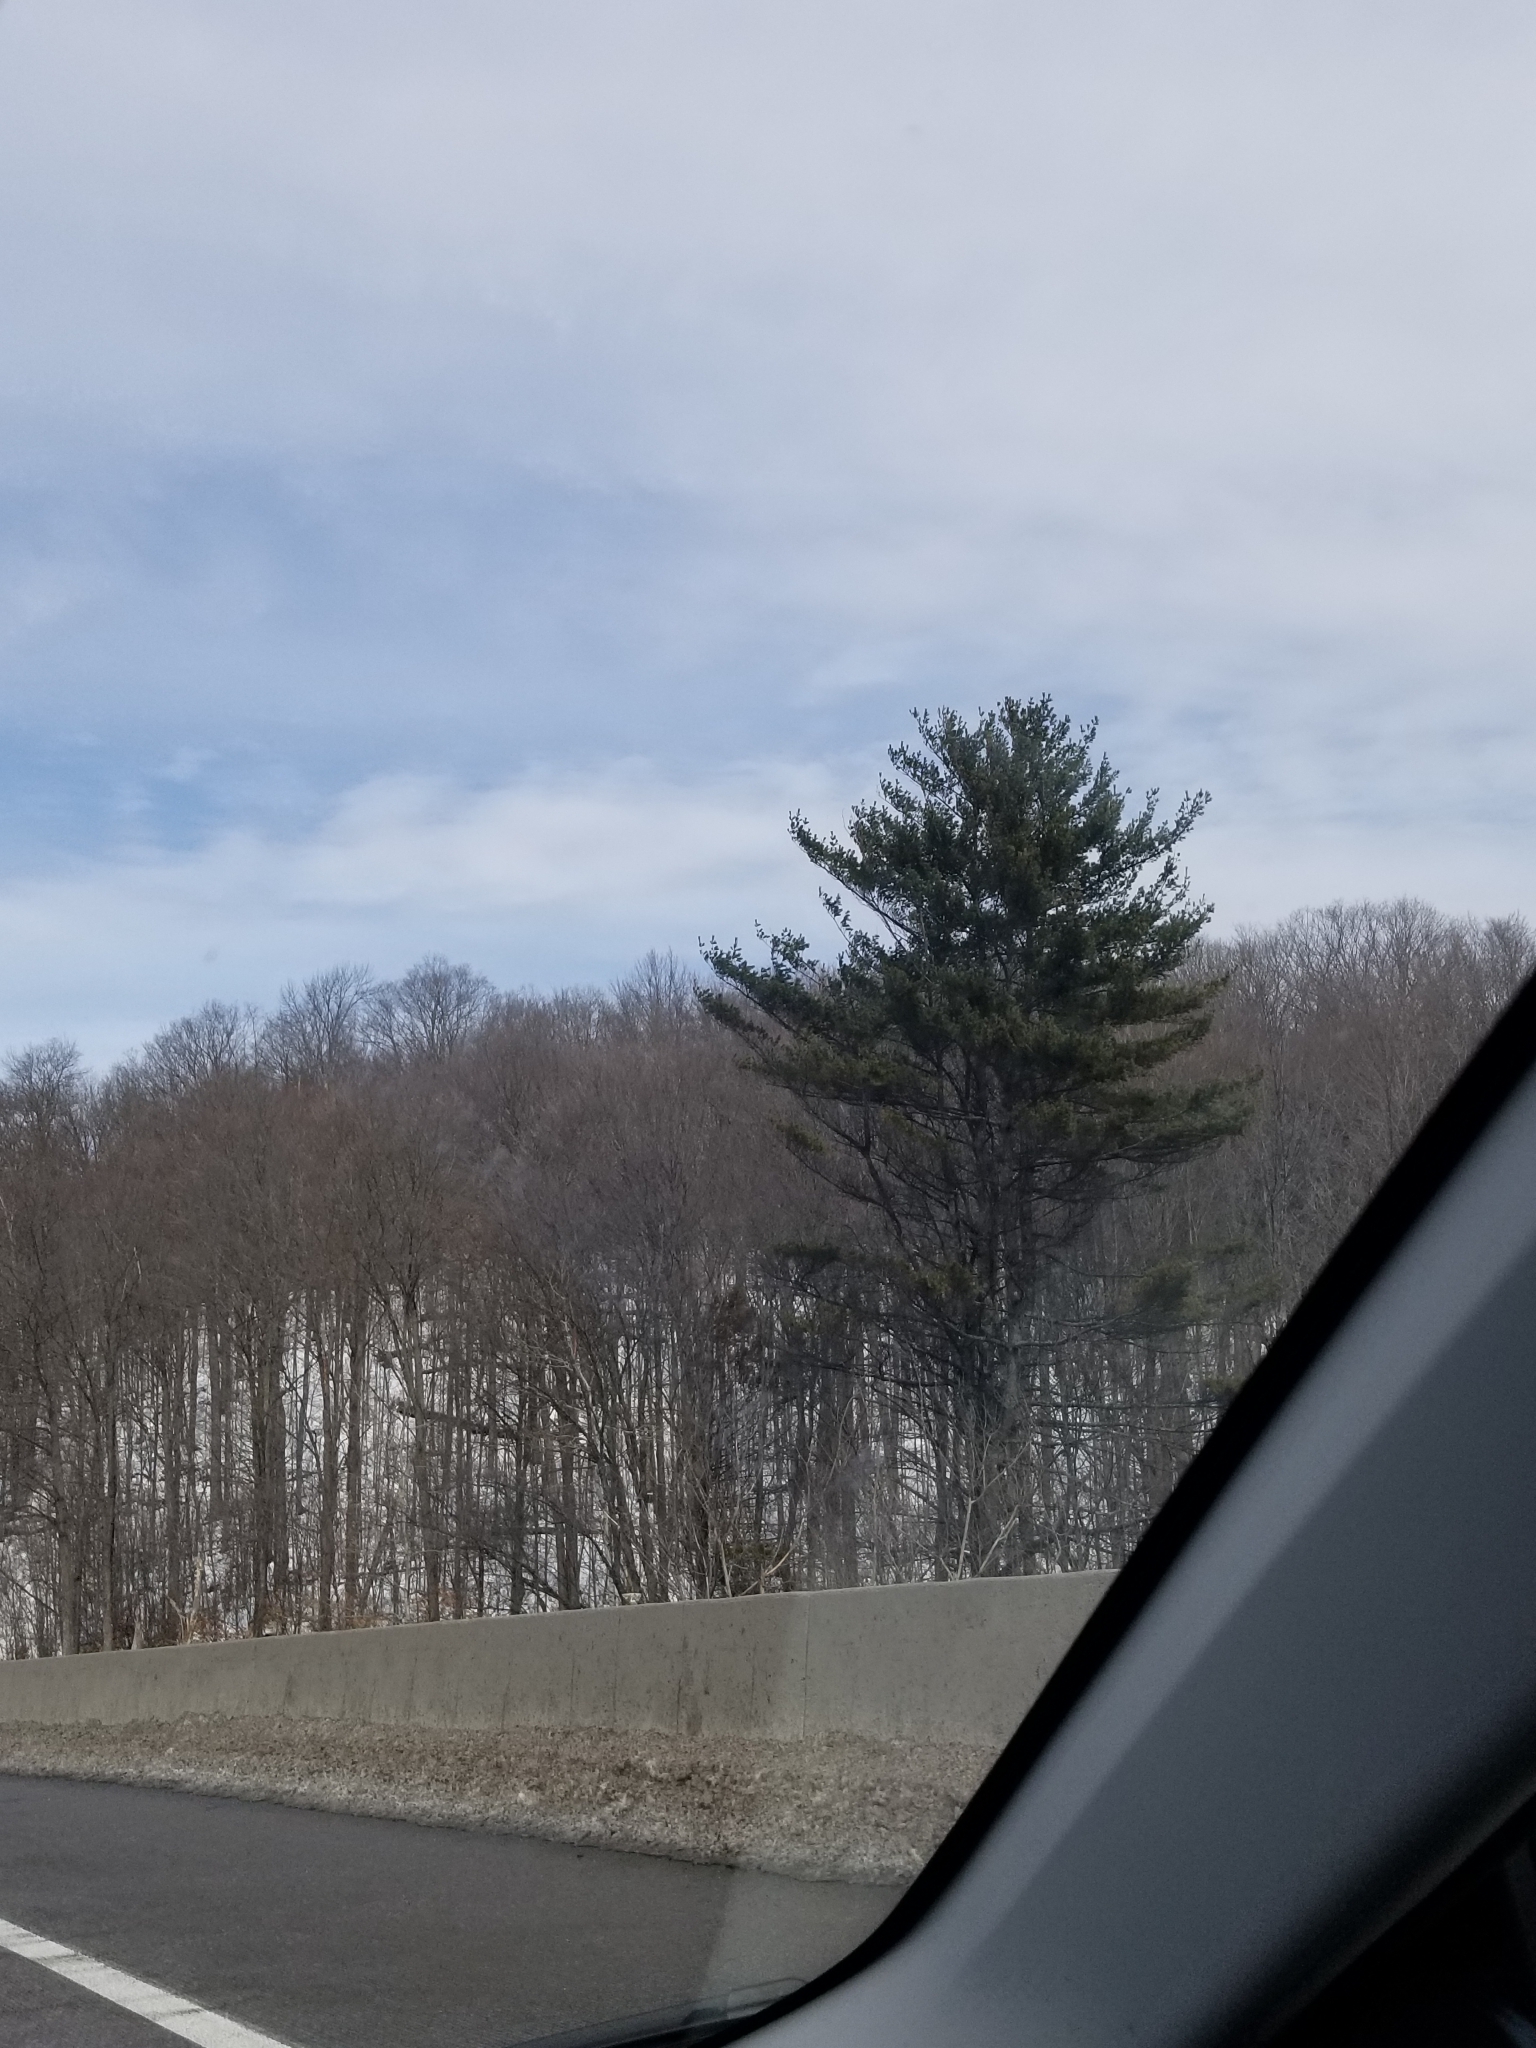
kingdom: Plantae
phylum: Tracheophyta
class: Pinopsida
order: Pinales
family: Pinaceae
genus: Pinus
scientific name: Pinus strobus
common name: Weymouth pine
